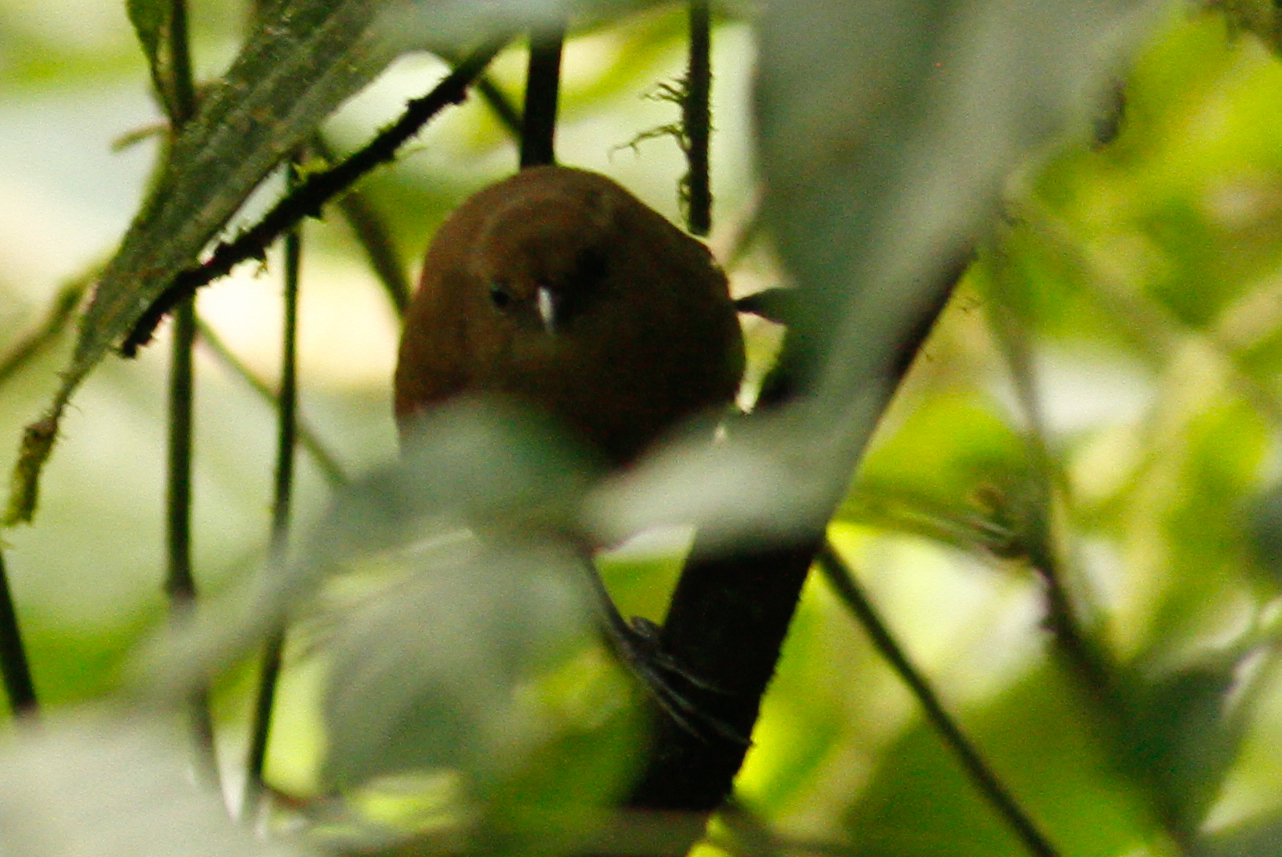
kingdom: Animalia
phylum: Chordata
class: Aves
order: Passeriformes
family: Troglodytidae
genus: Cinnycerthia
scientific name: Cinnycerthia olivascens
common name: Sharpe's wren
